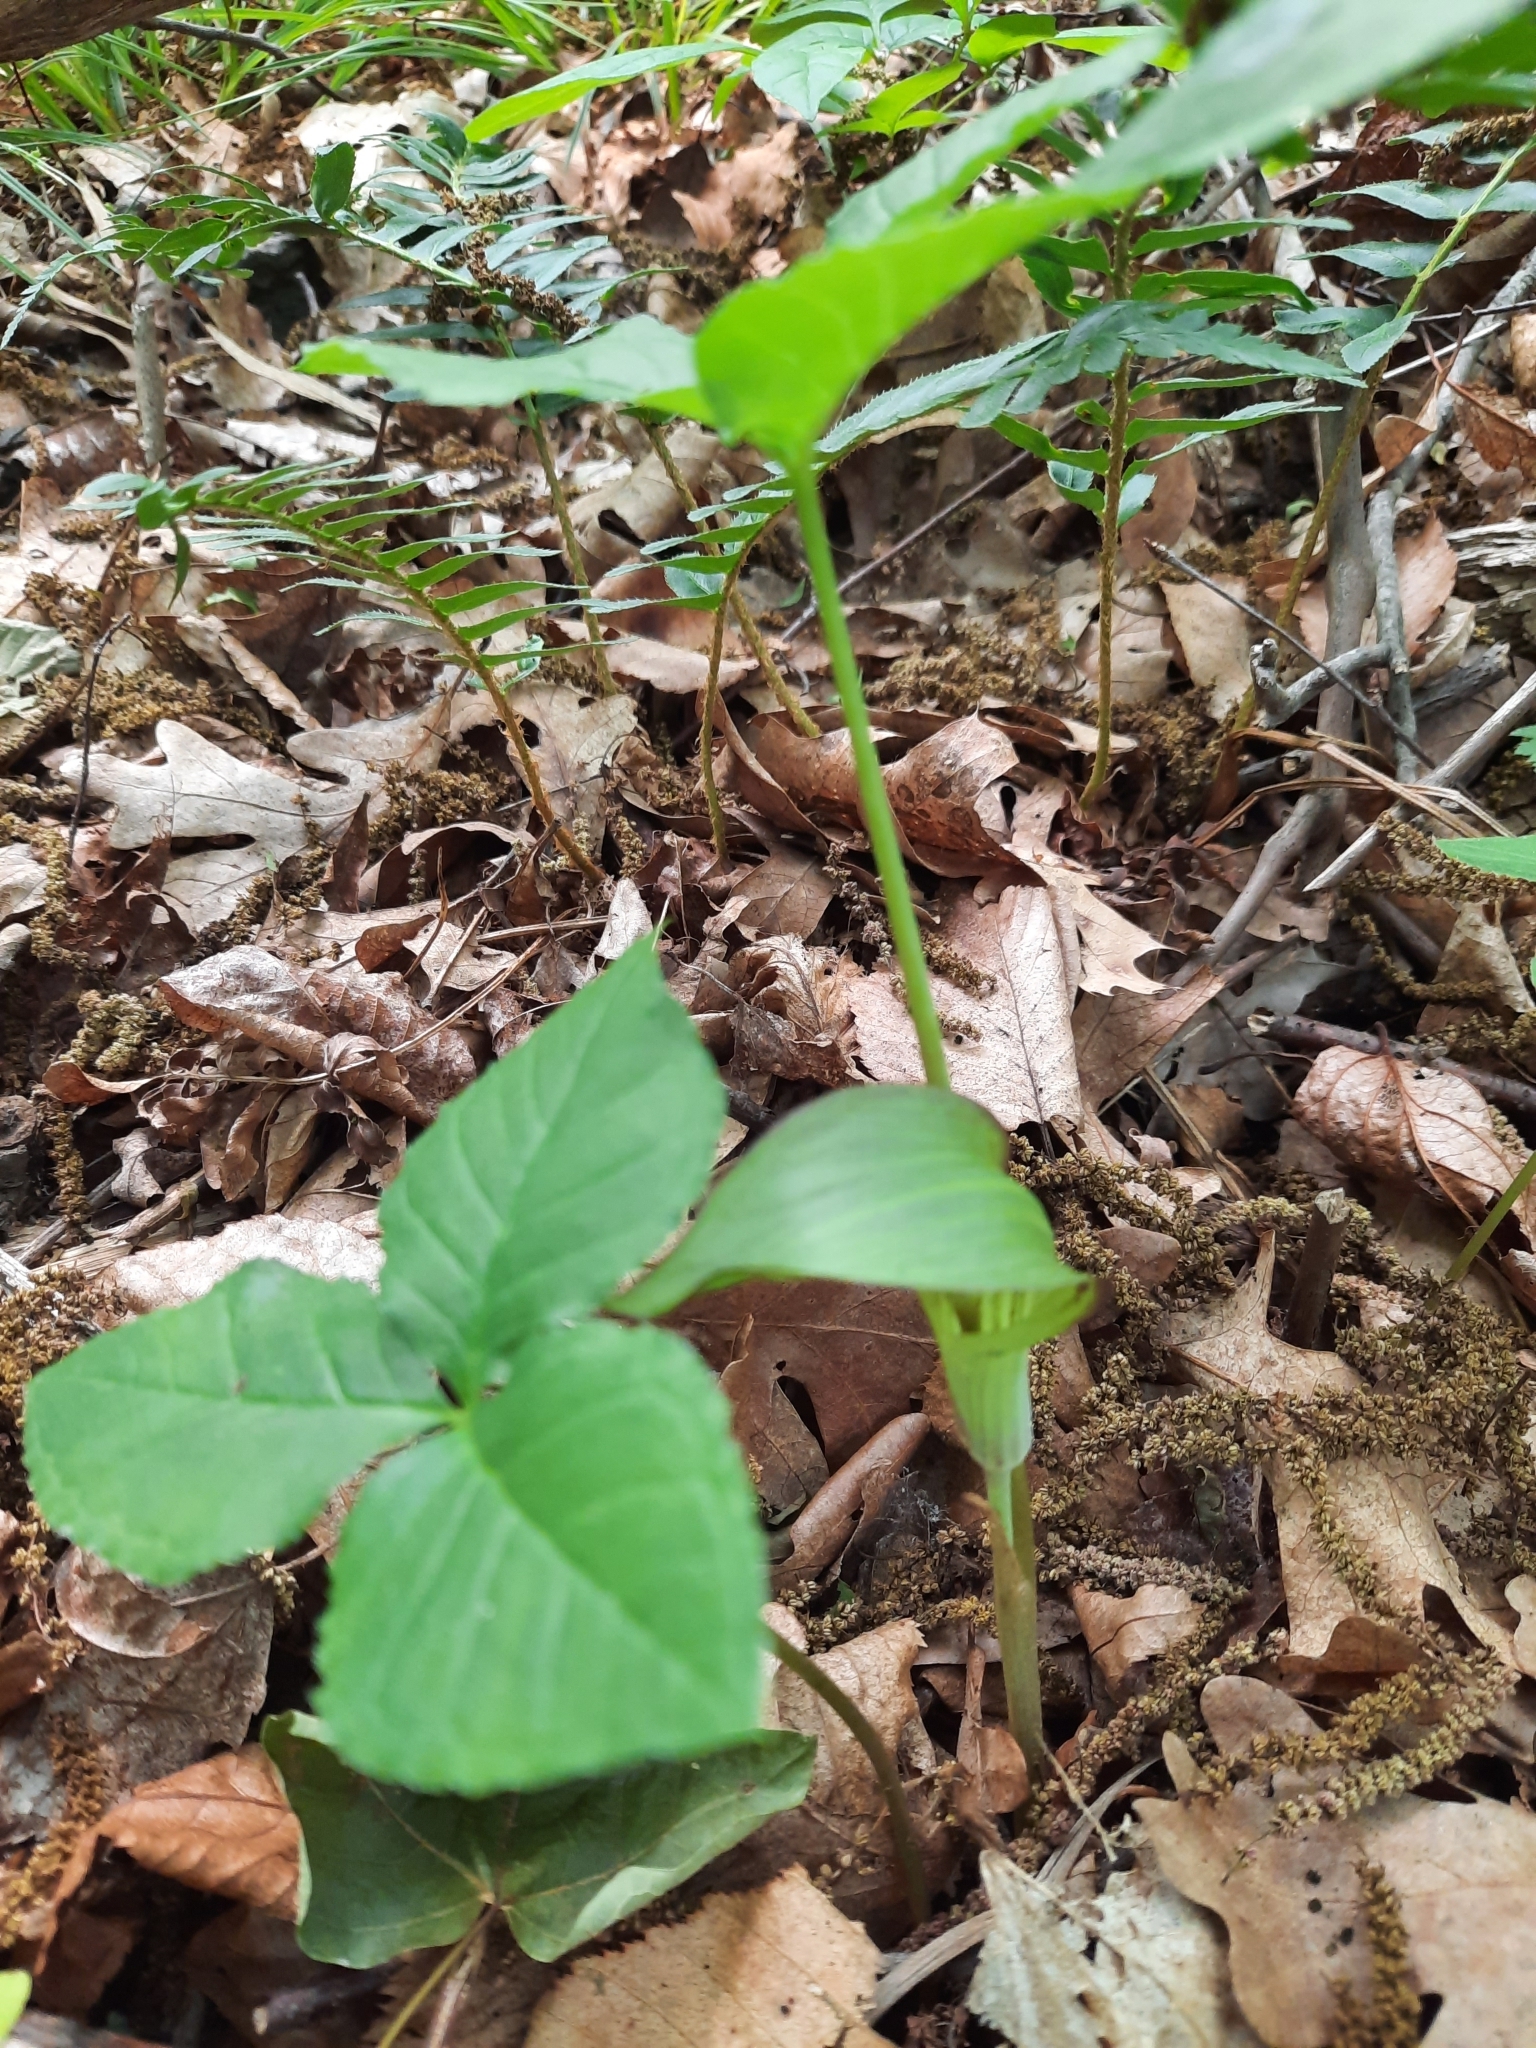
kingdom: Plantae
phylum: Tracheophyta
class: Liliopsida
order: Alismatales
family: Araceae
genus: Arisaema
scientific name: Arisaema triphyllum
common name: Jack-in-the-pulpit
